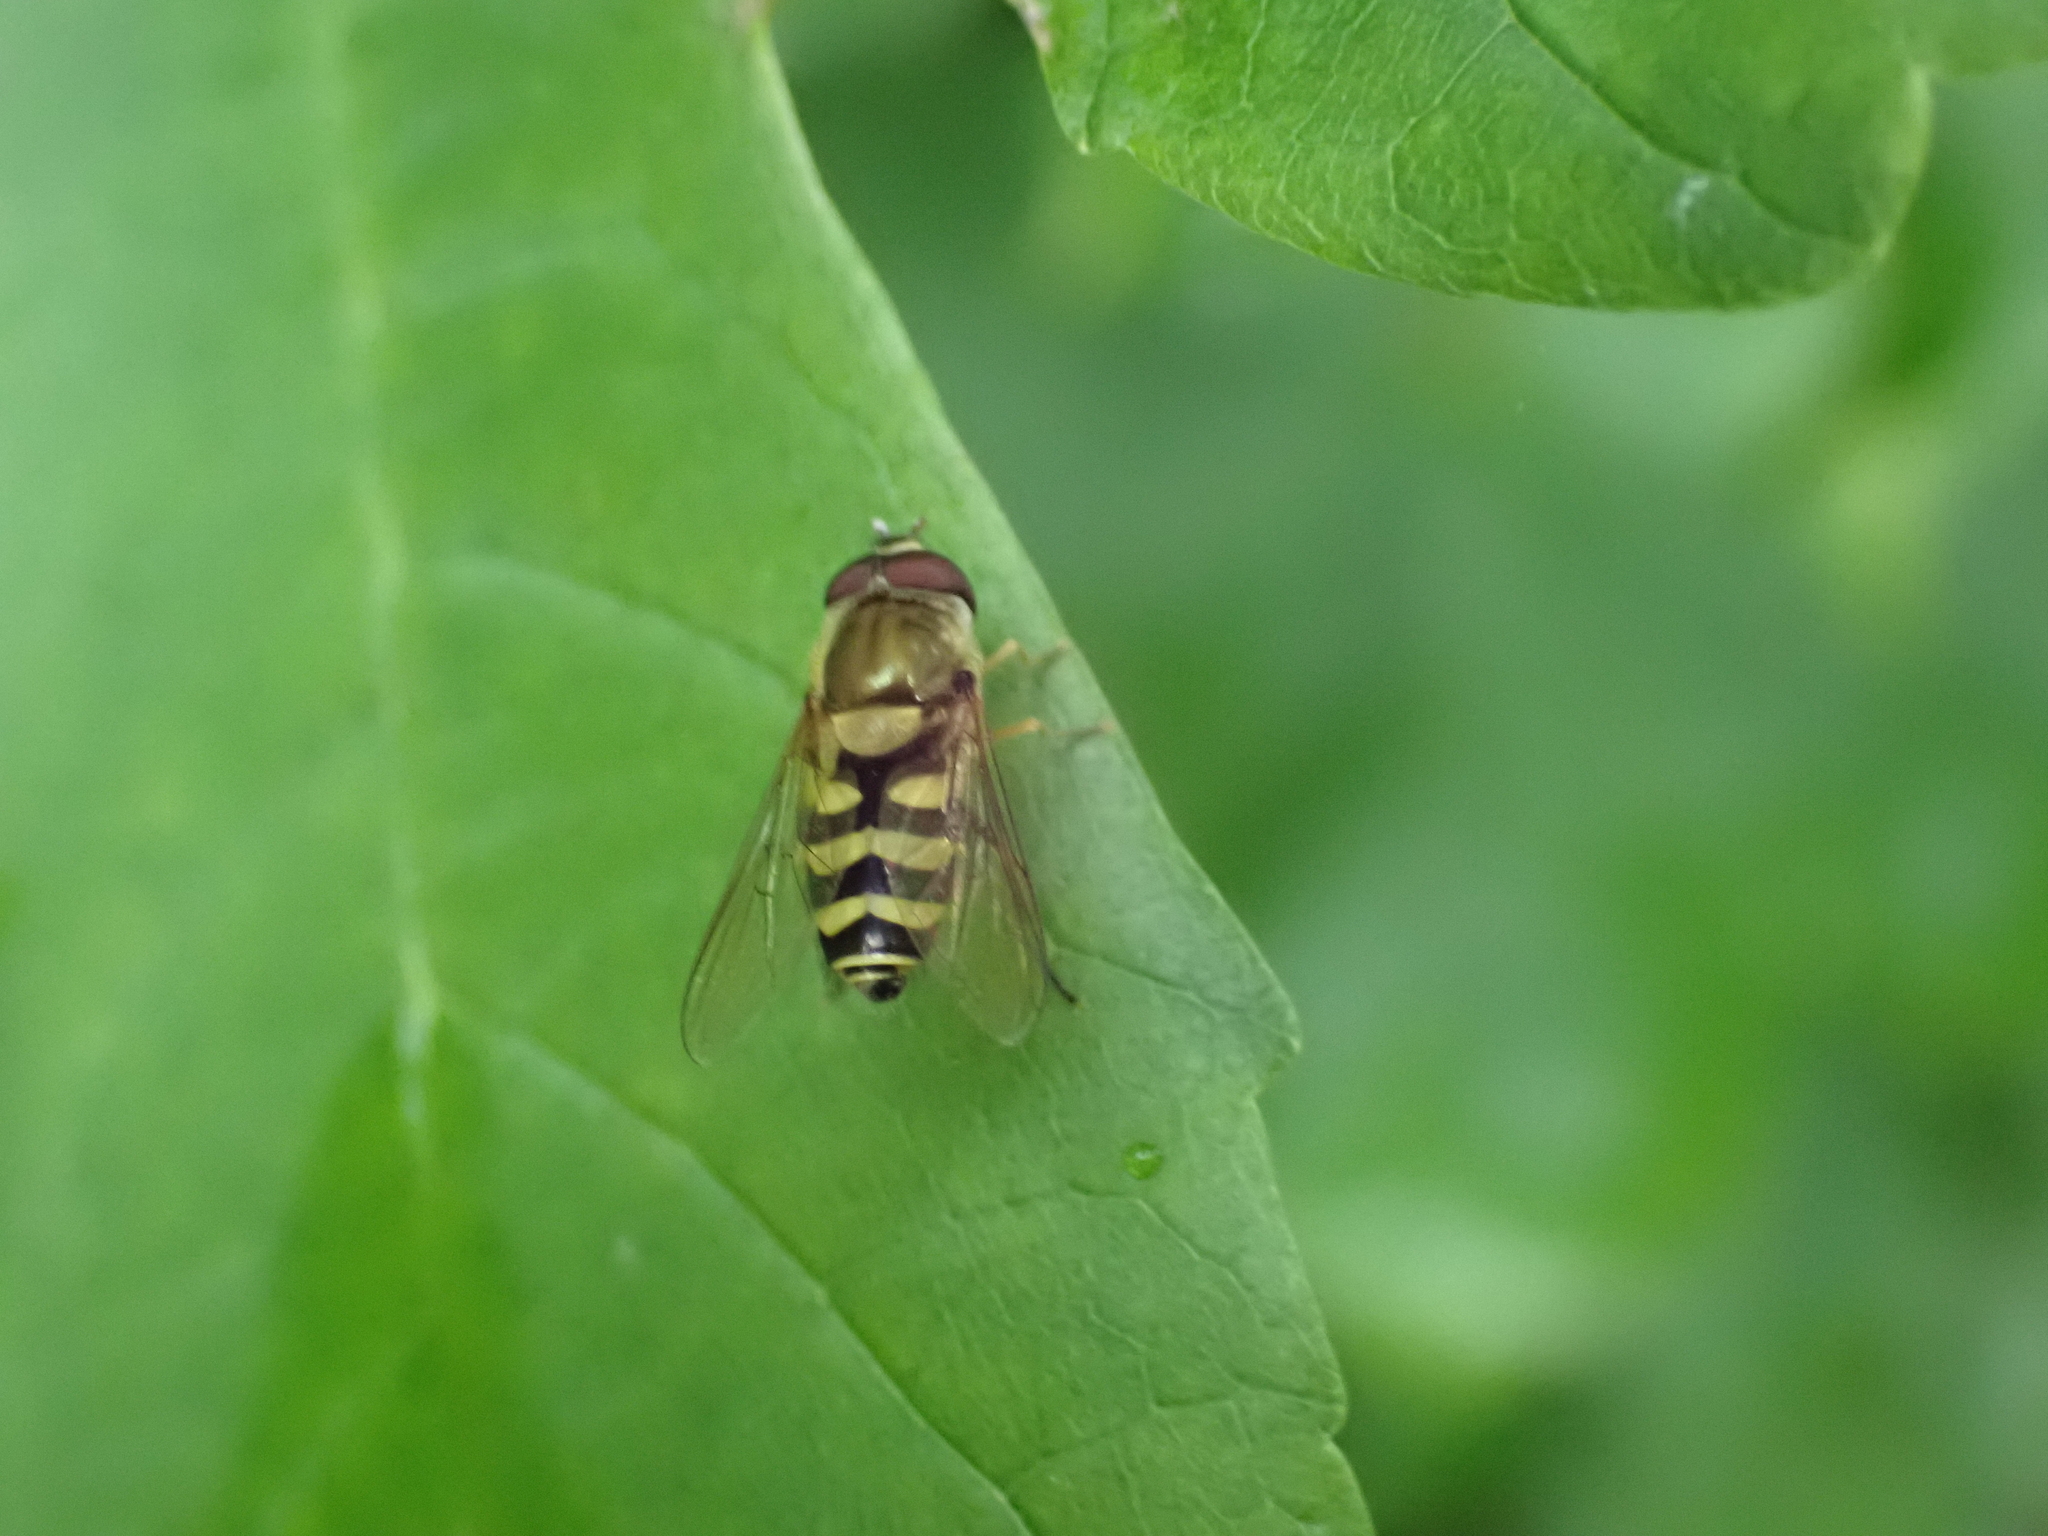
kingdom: Animalia
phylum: Arthropoda
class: Insecta
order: Diptera
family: Syrphidae
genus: Syrphus
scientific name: Syrphus
